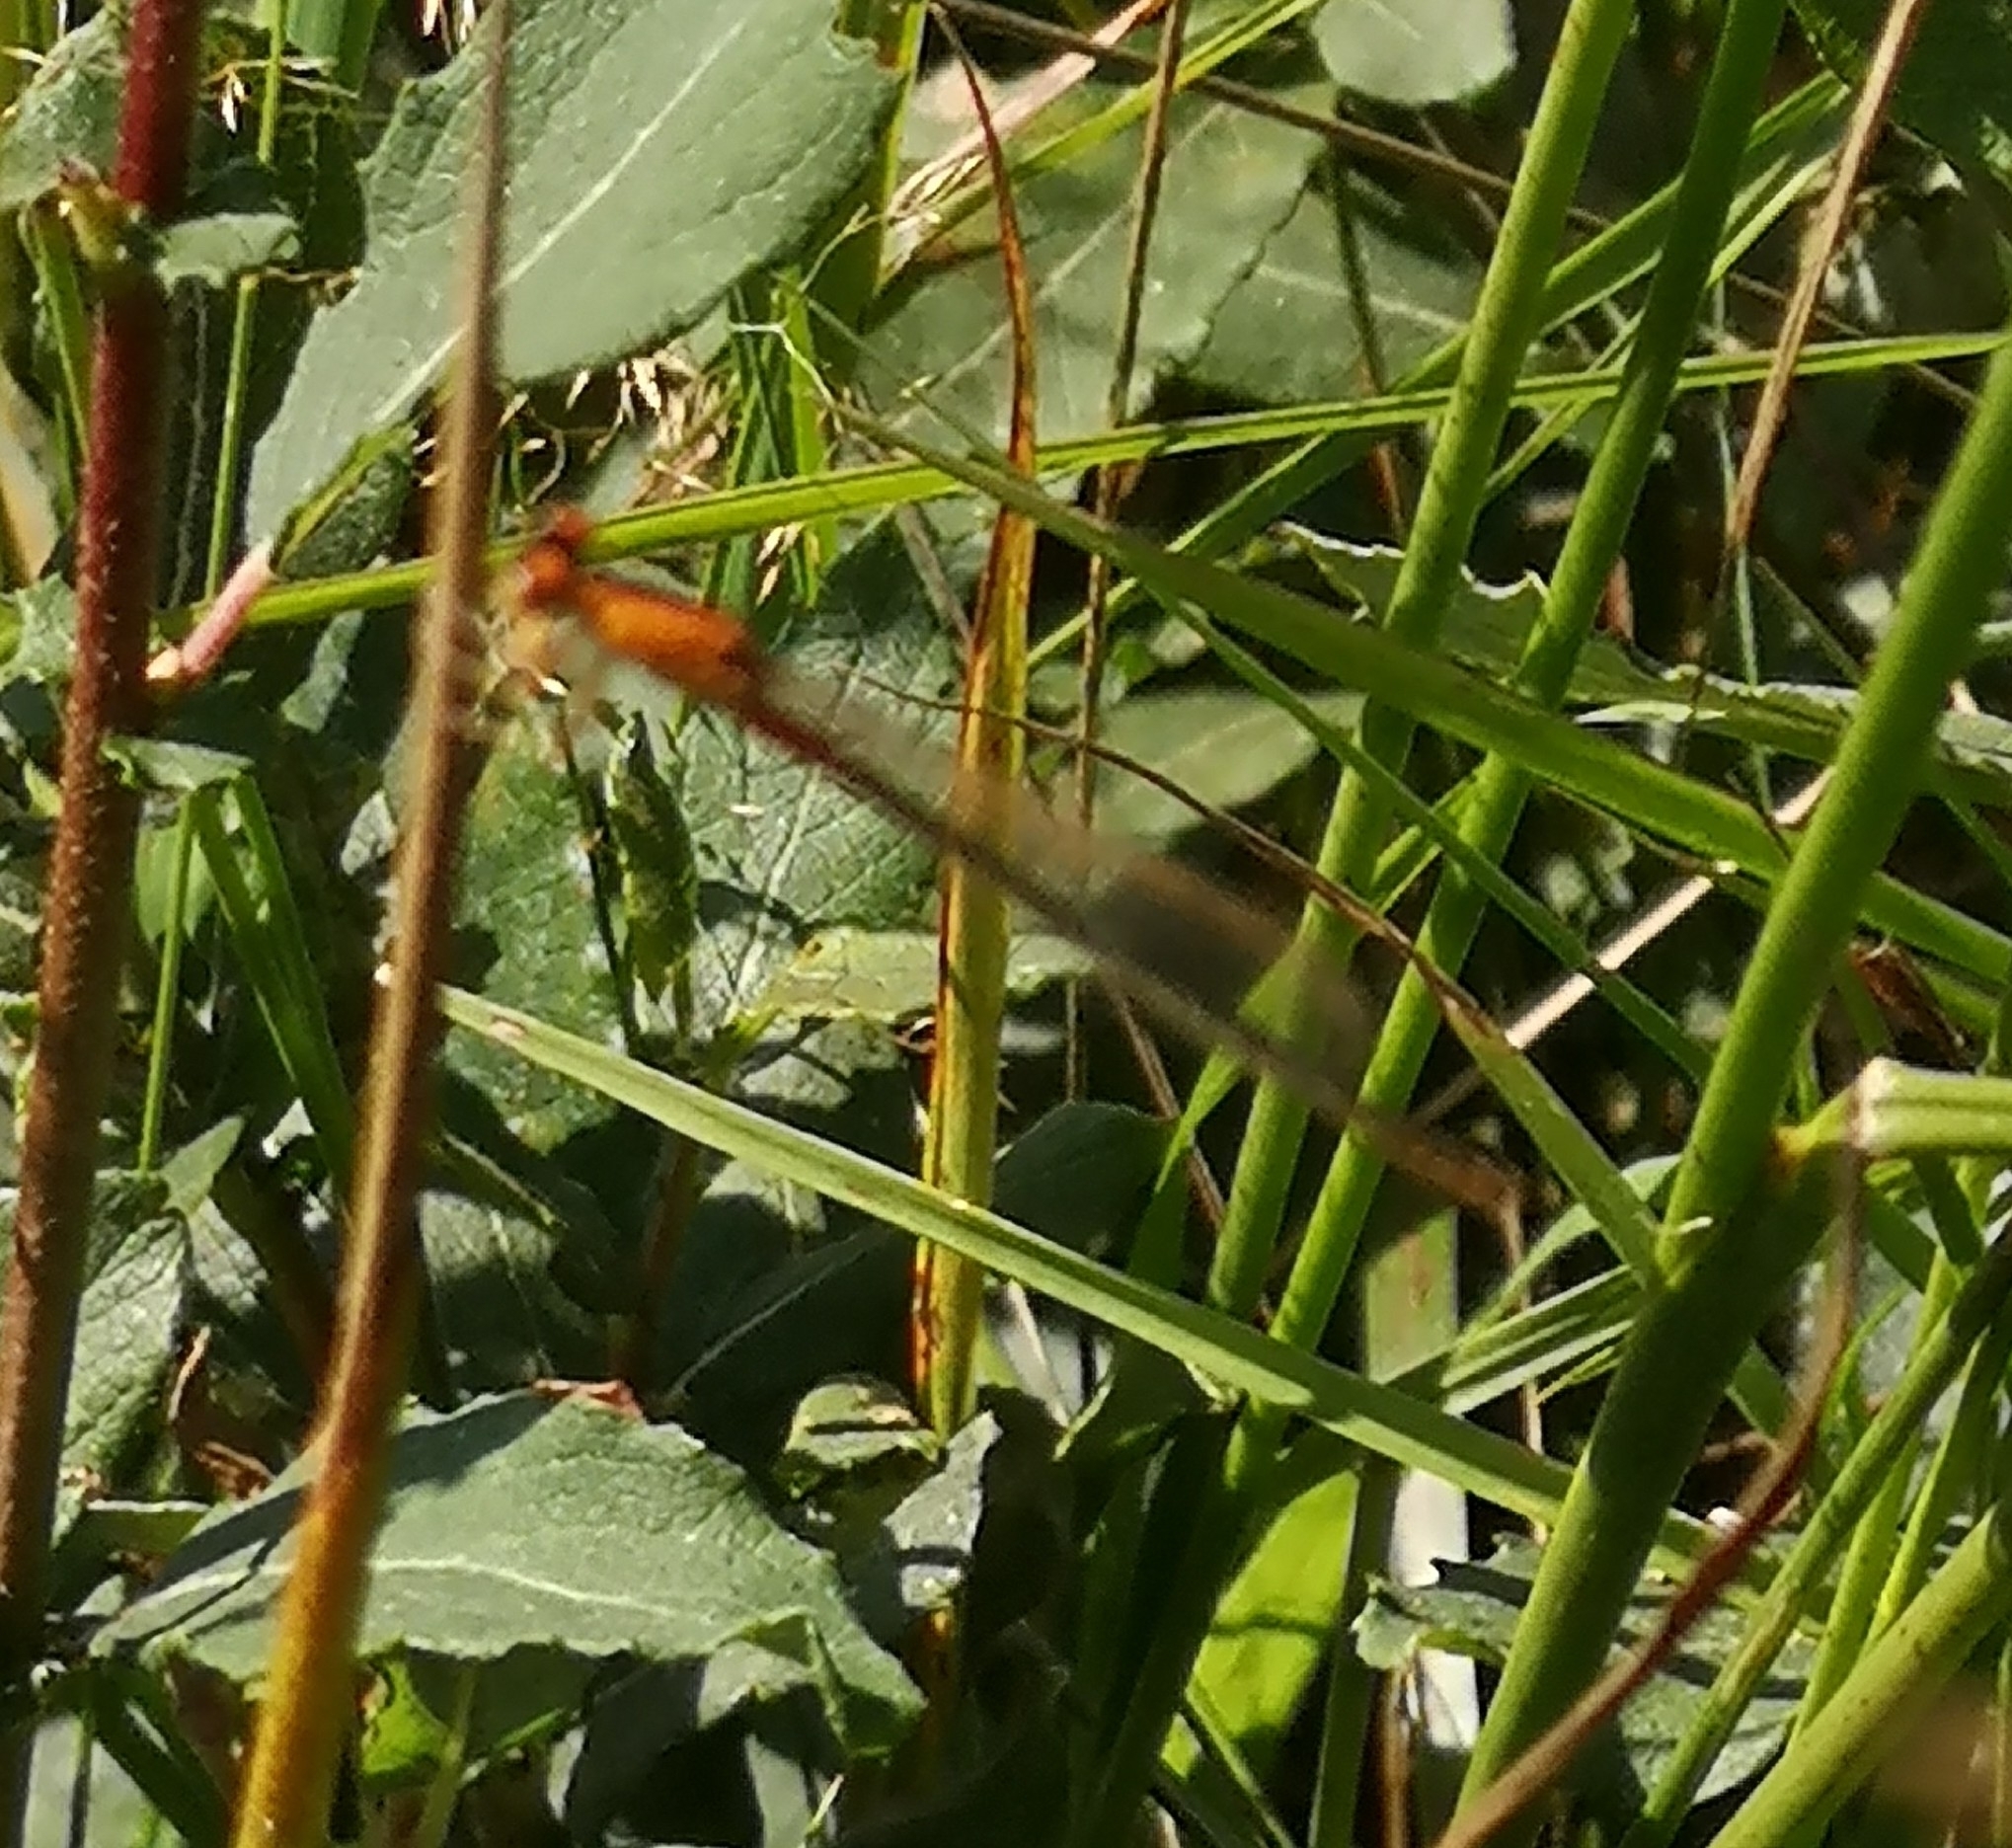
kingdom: Animalia
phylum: Arthropoda
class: Insecta
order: Odonata
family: Coenagrionidae
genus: Ischnura
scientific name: Ischnura pumilio
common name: Scarce blue-tailed damselfly
